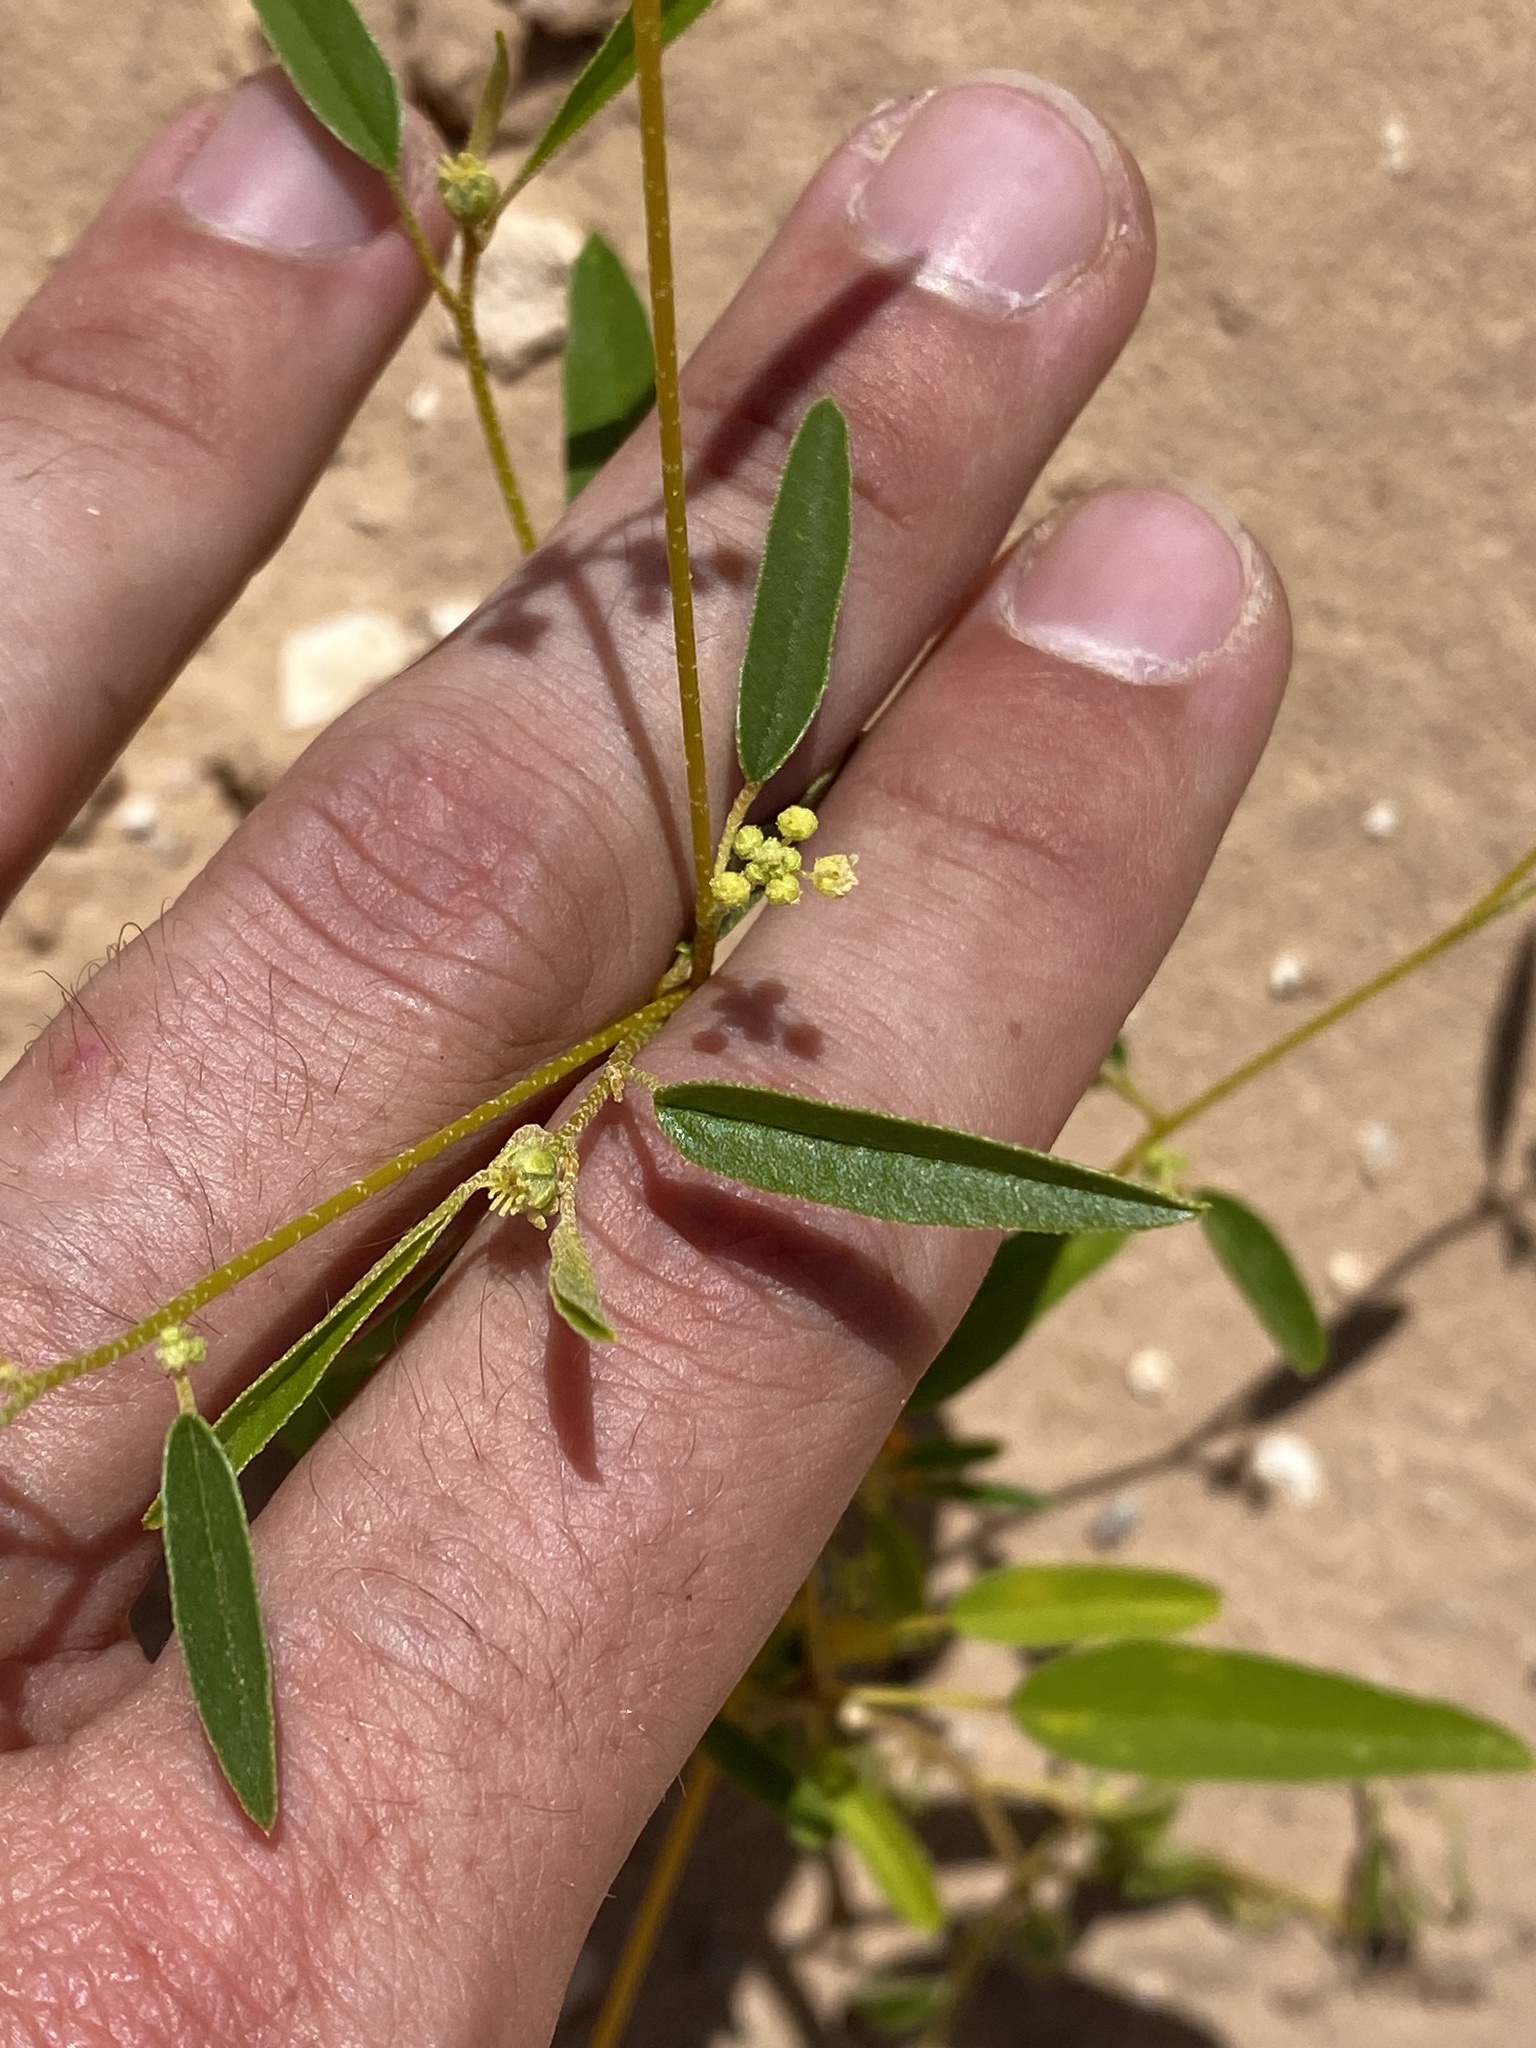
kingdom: Plantae
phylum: Tracheophyta
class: Magnoliopsida
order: Malpighiales
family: Euphorbiaceae
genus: Croton
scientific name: Croton texensis
